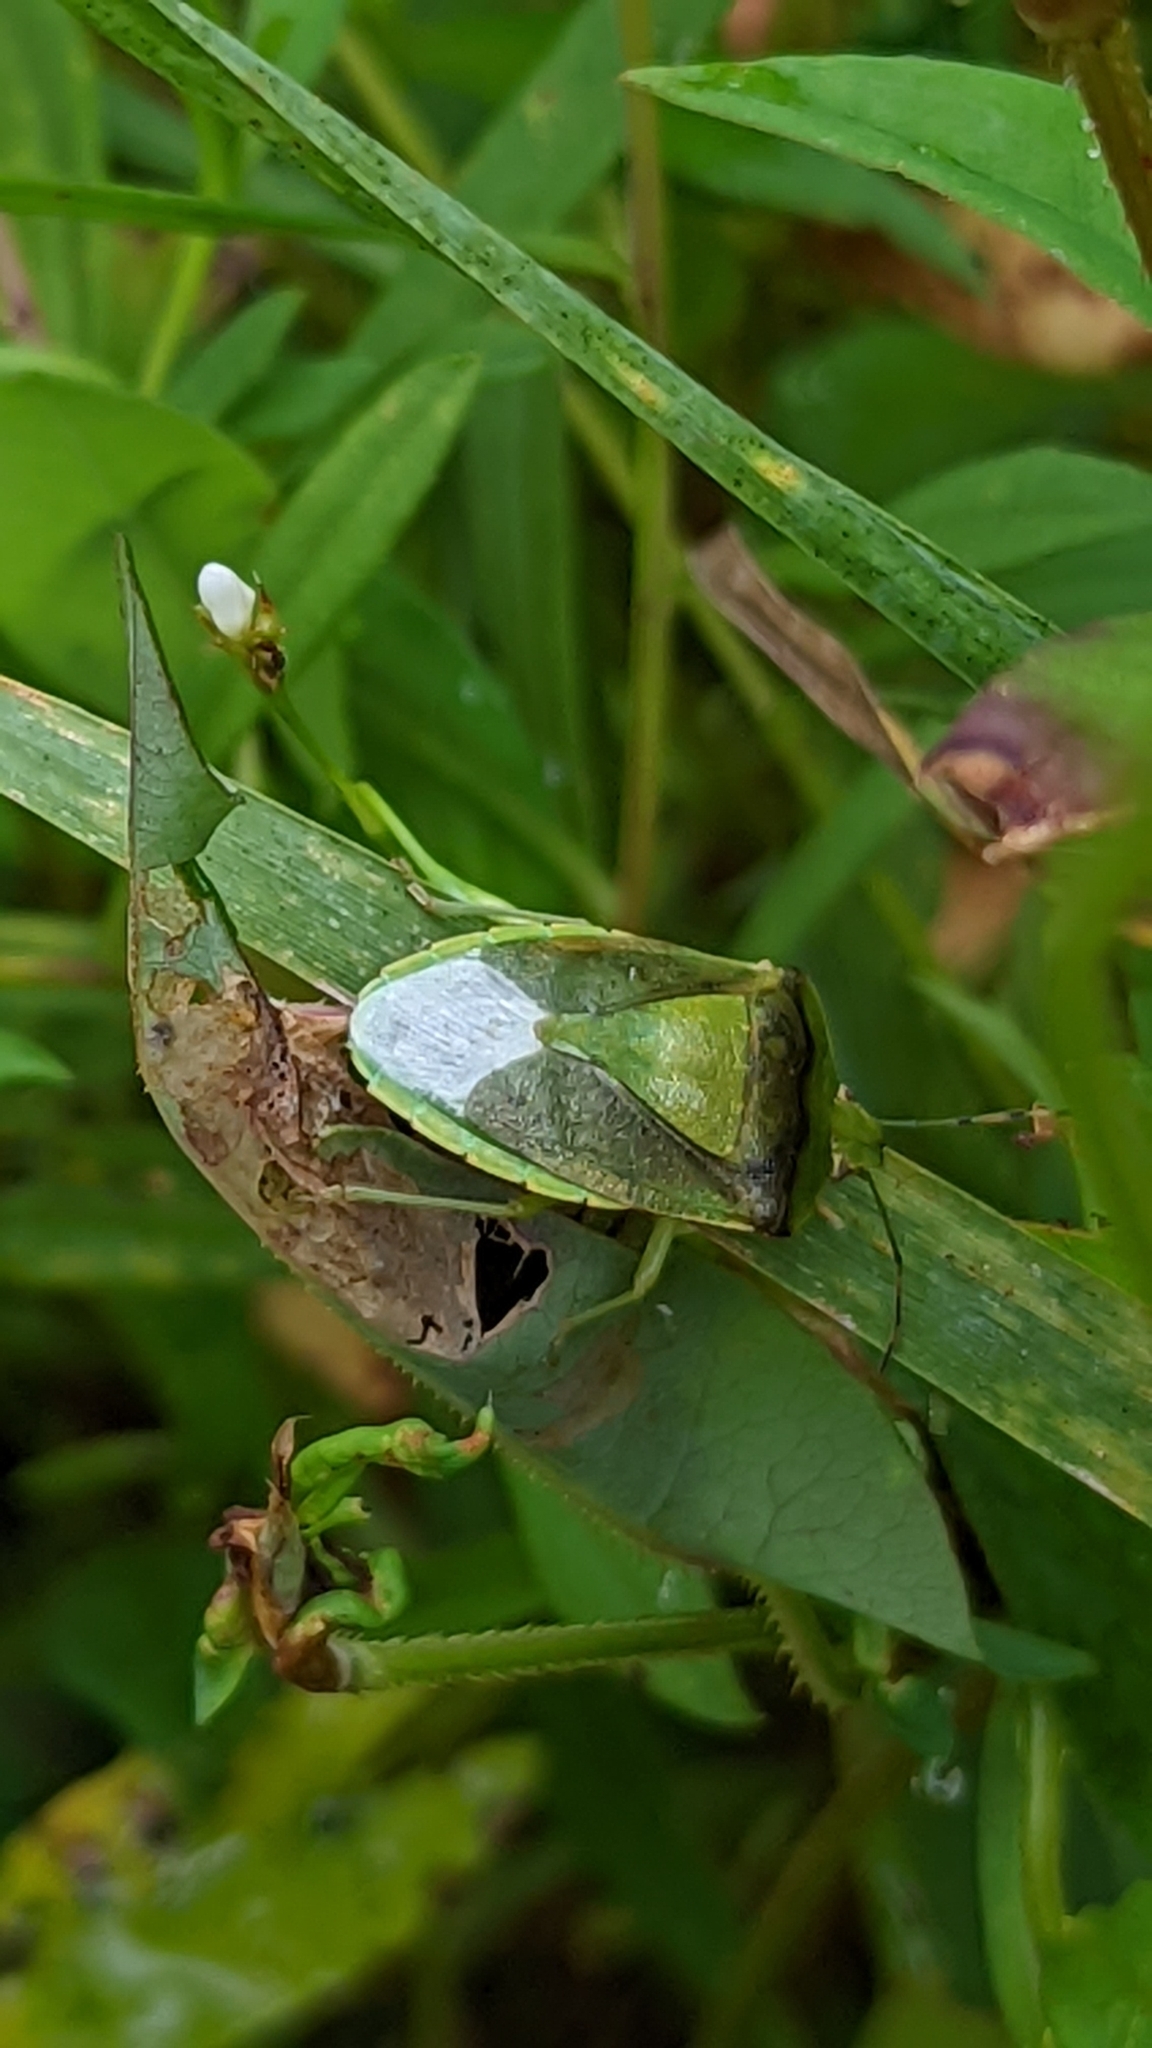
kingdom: Animalia
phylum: Arthropoda
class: Insecta
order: Hemiptera
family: Pentatomidae
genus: Chinavia
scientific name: Chinavia hilaris
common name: Green stink bug
